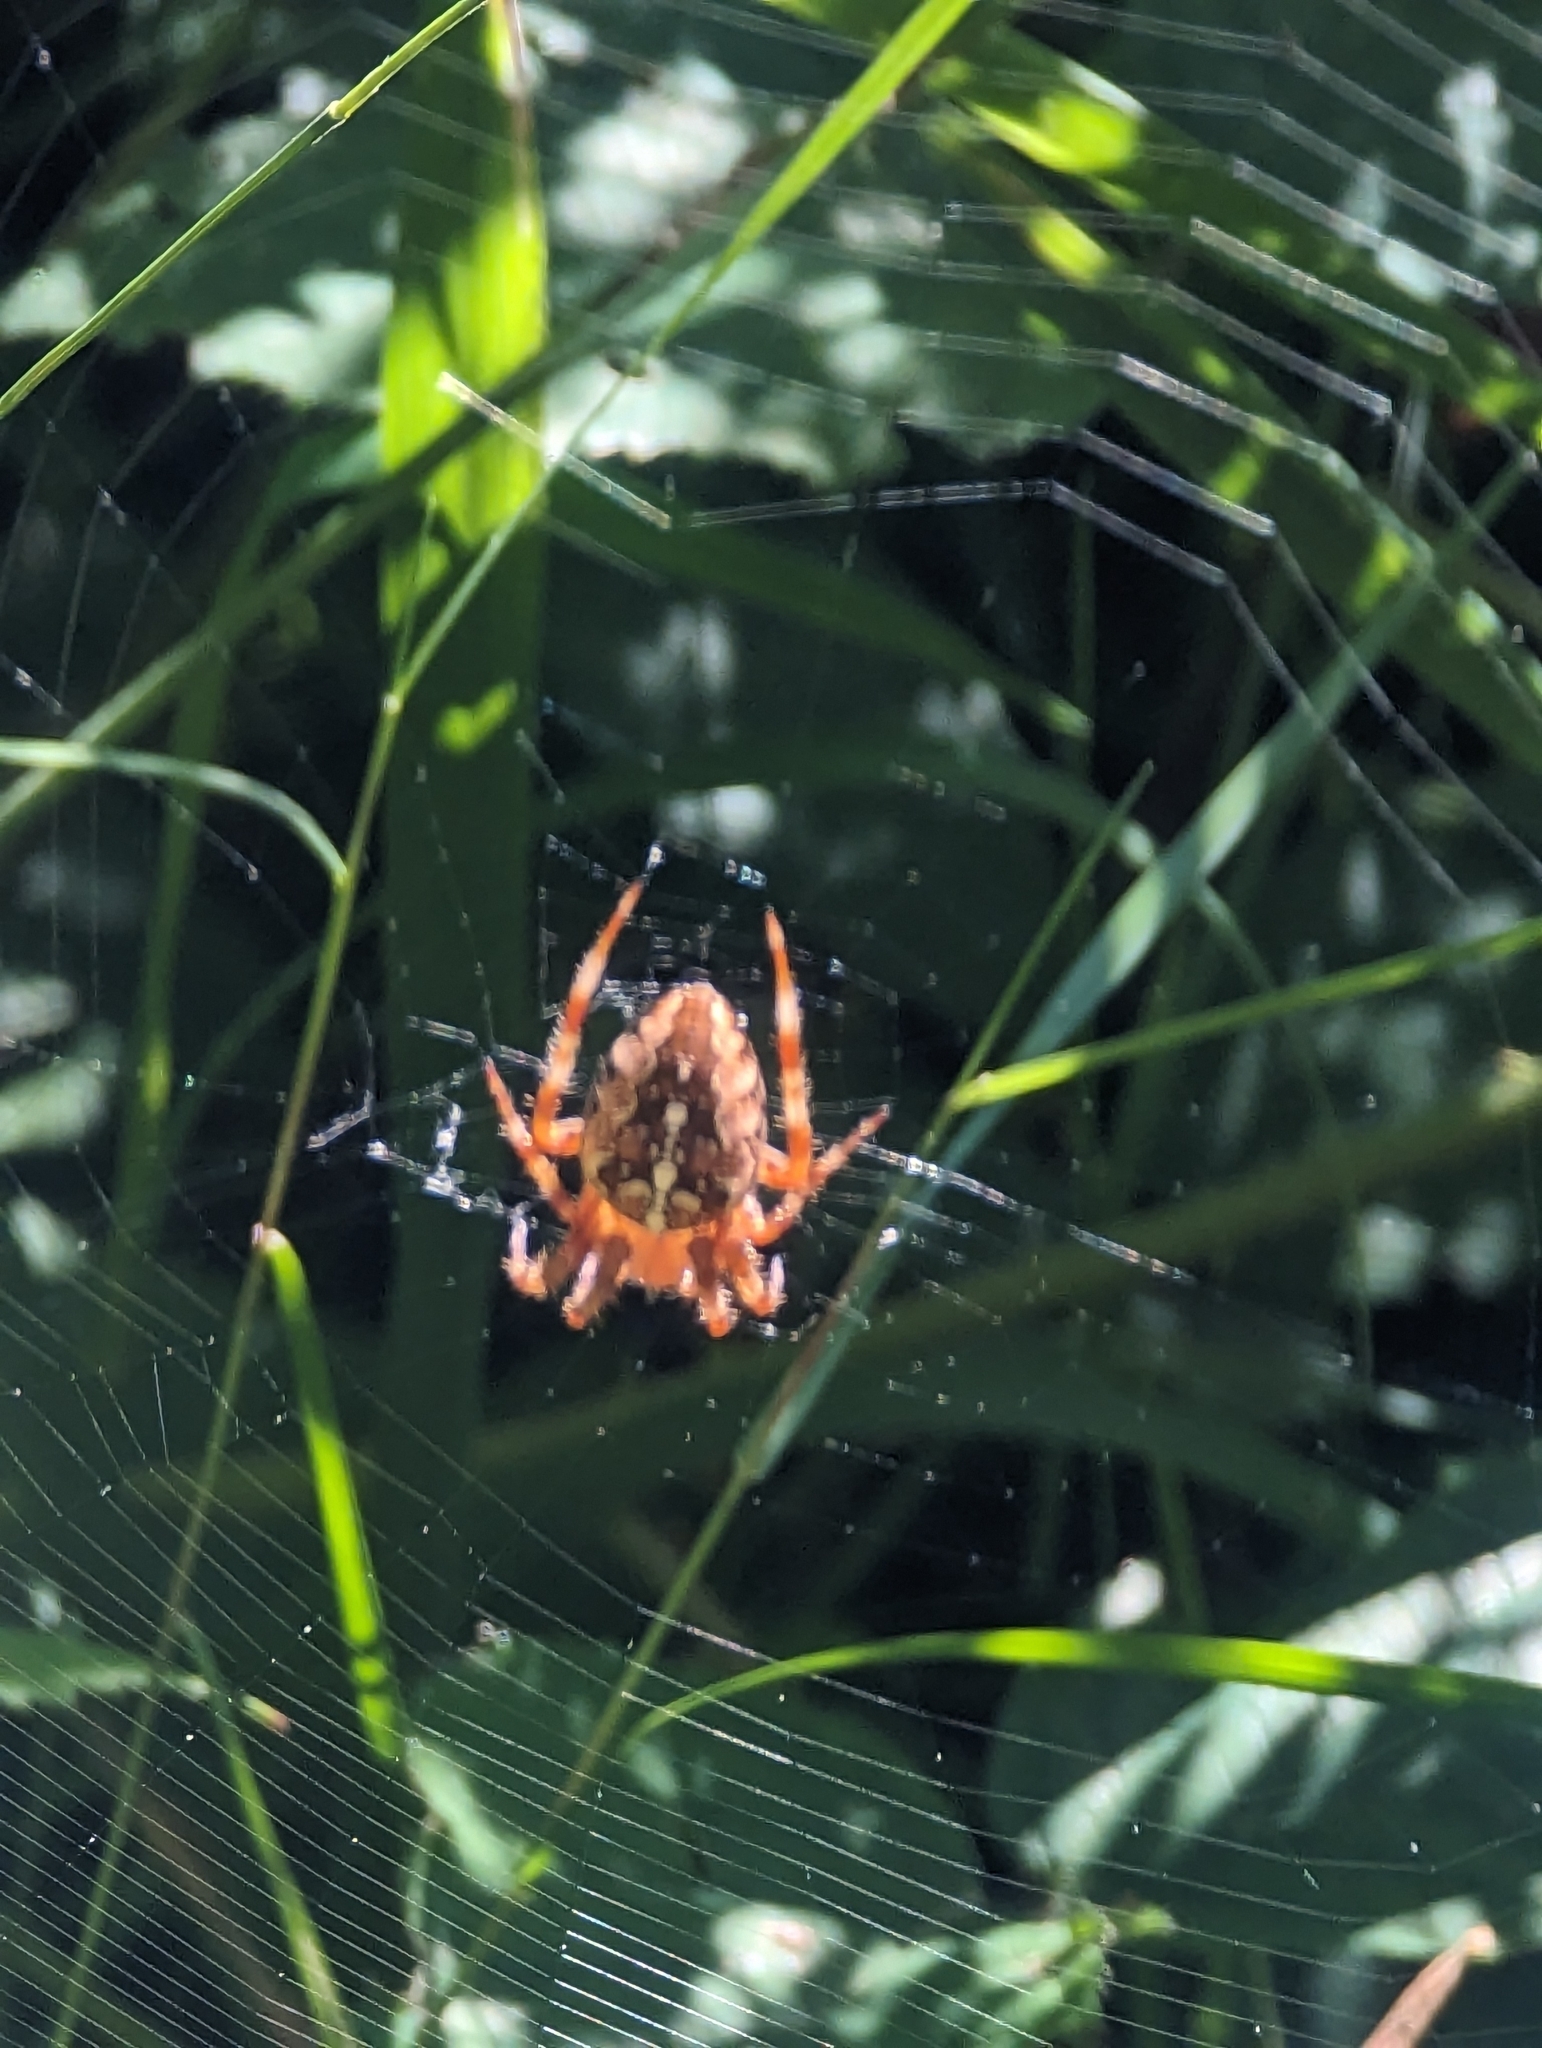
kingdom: Animalia
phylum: Arthropoda
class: Arachnida
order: Araneae
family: Araneidae
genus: Araneus
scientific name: Araneus diadematus
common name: Cross orbweaver
